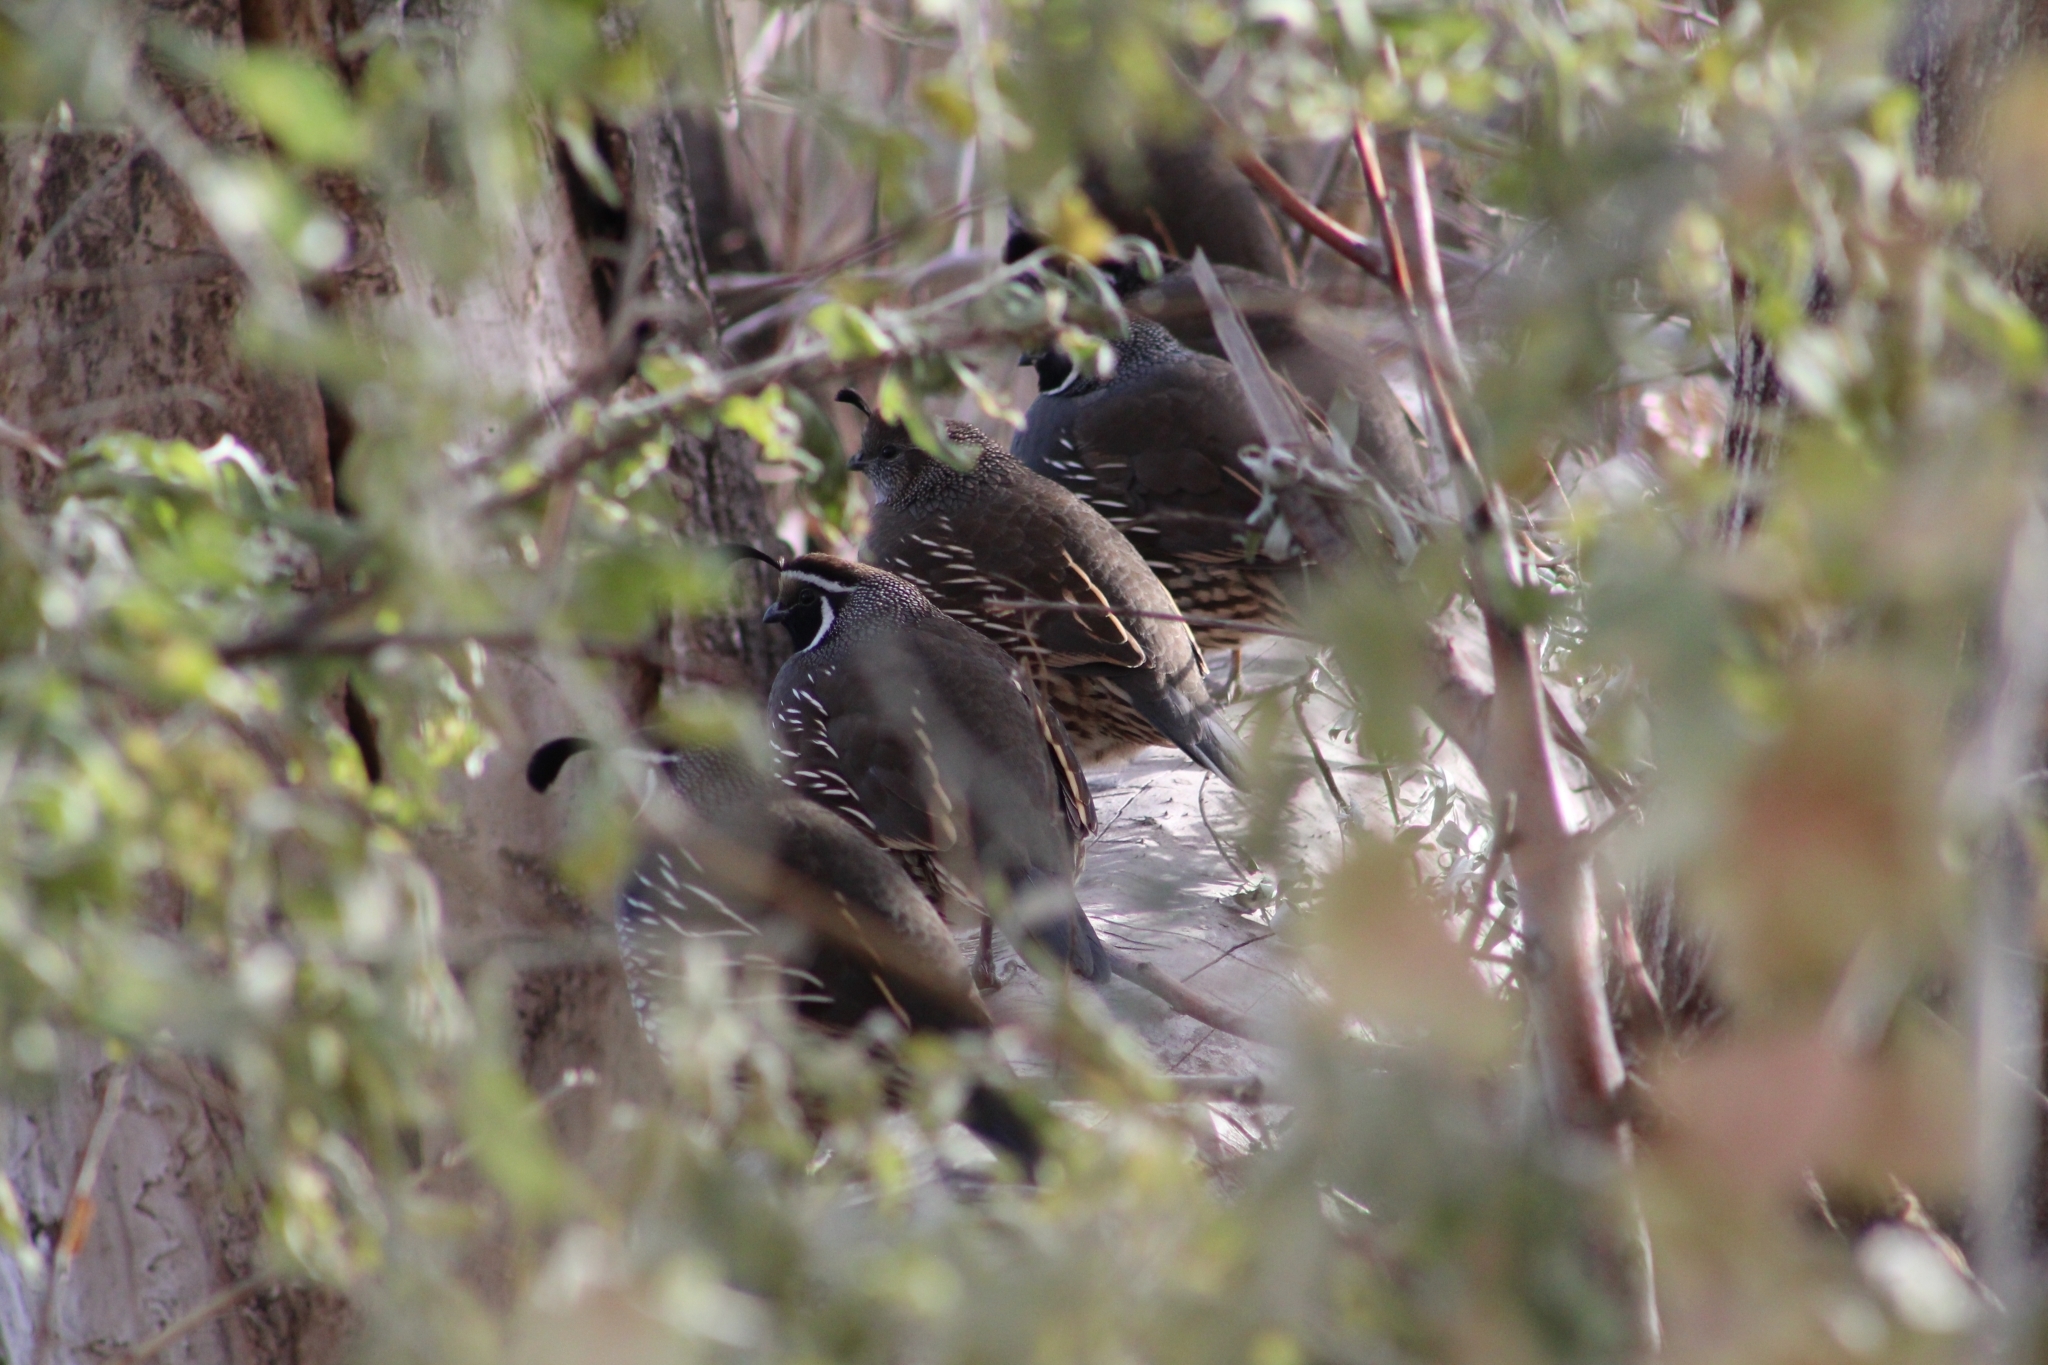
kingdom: Animalia
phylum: Chordata
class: Aves
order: Galliformes
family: Odontophoridae
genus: Callipepla
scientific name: Callipepla californica
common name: California quail
